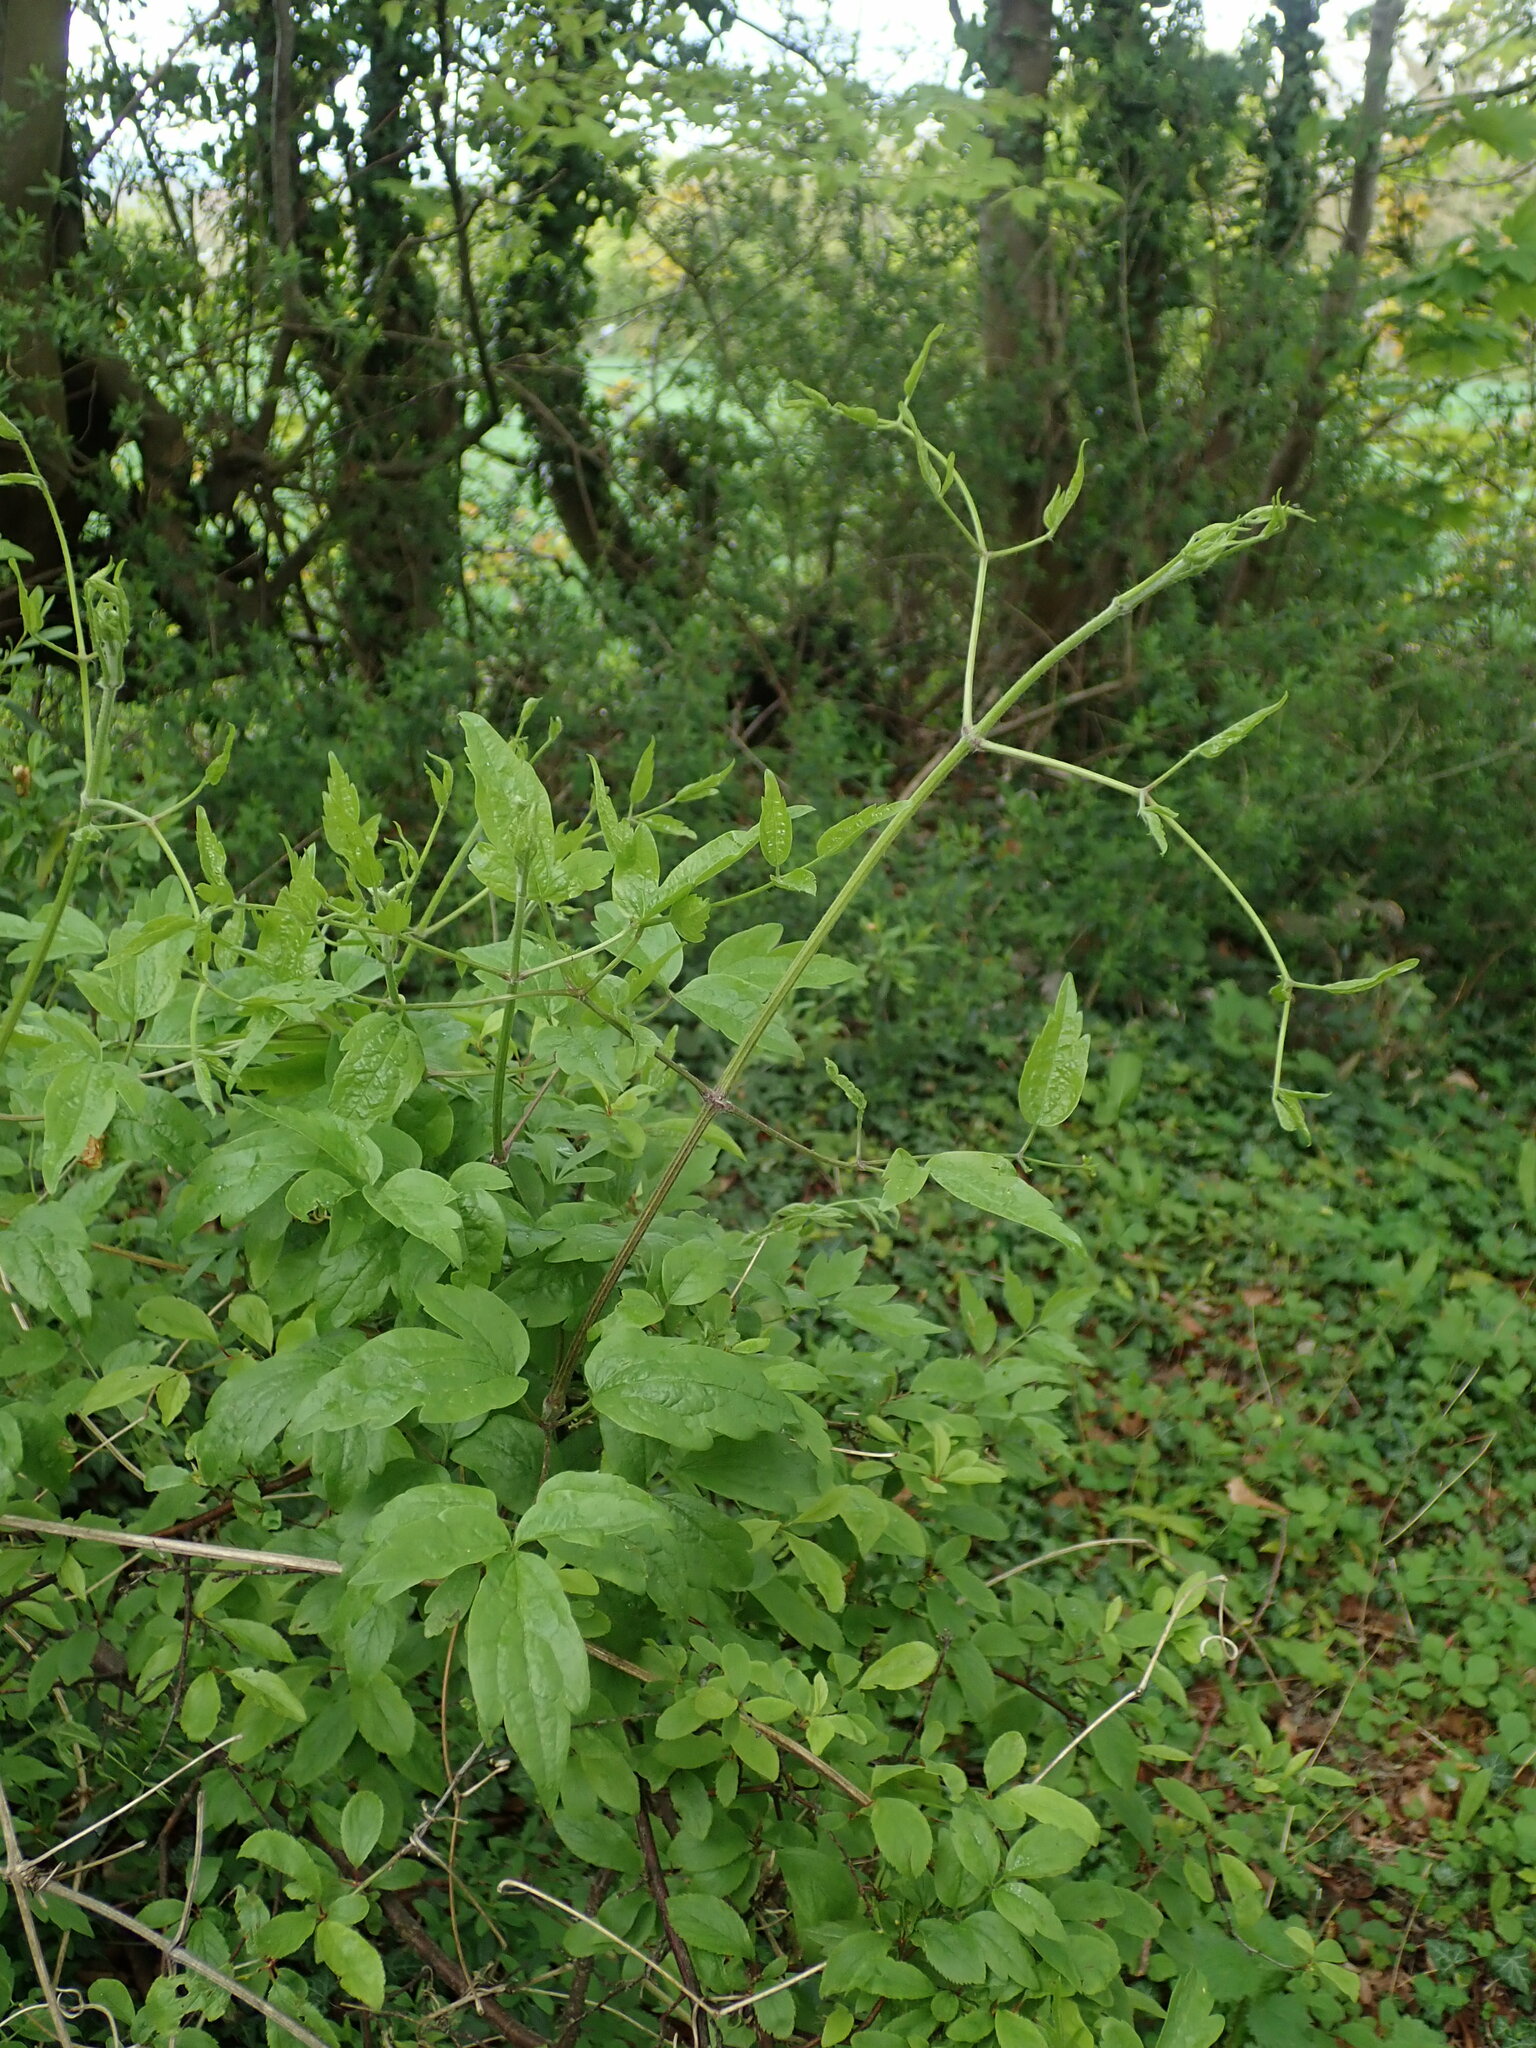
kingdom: Plantae
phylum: Tracheophyta
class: Magnoliopsida
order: Ranunculales
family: Ranunculaceae
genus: Clematis
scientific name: Clematis vitalba
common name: Evergreen clematis
